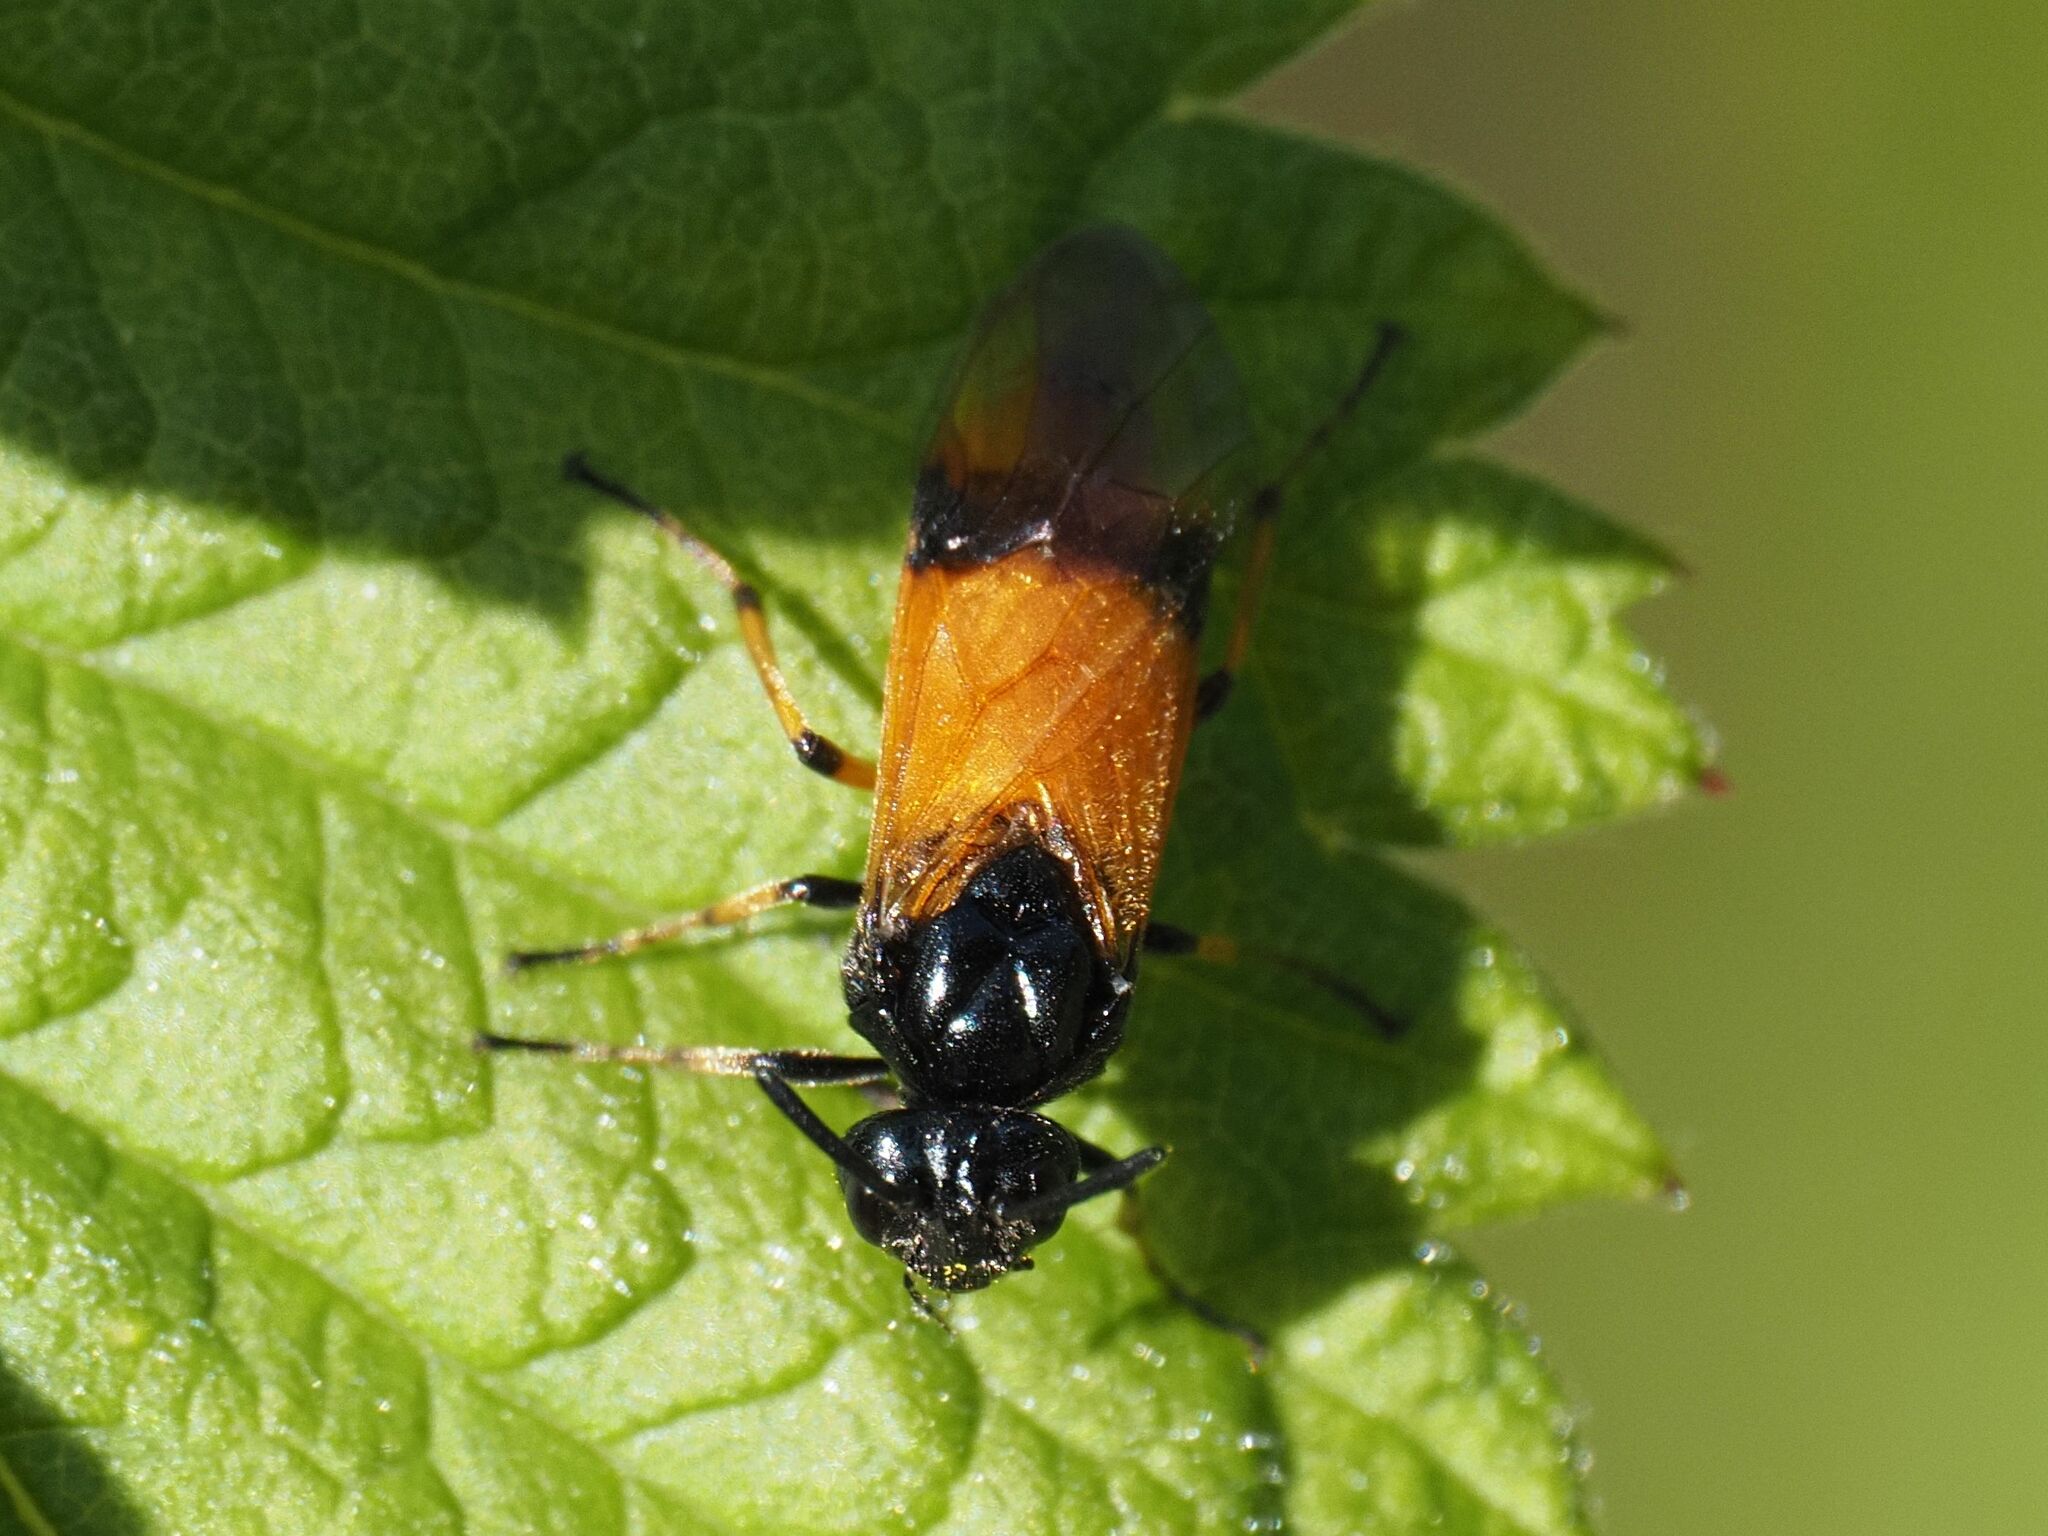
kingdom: Animalia
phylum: Arthropoda
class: Insecta
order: Hymenoptera
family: Argidae
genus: Arge
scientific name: Arge cyanocrocea
